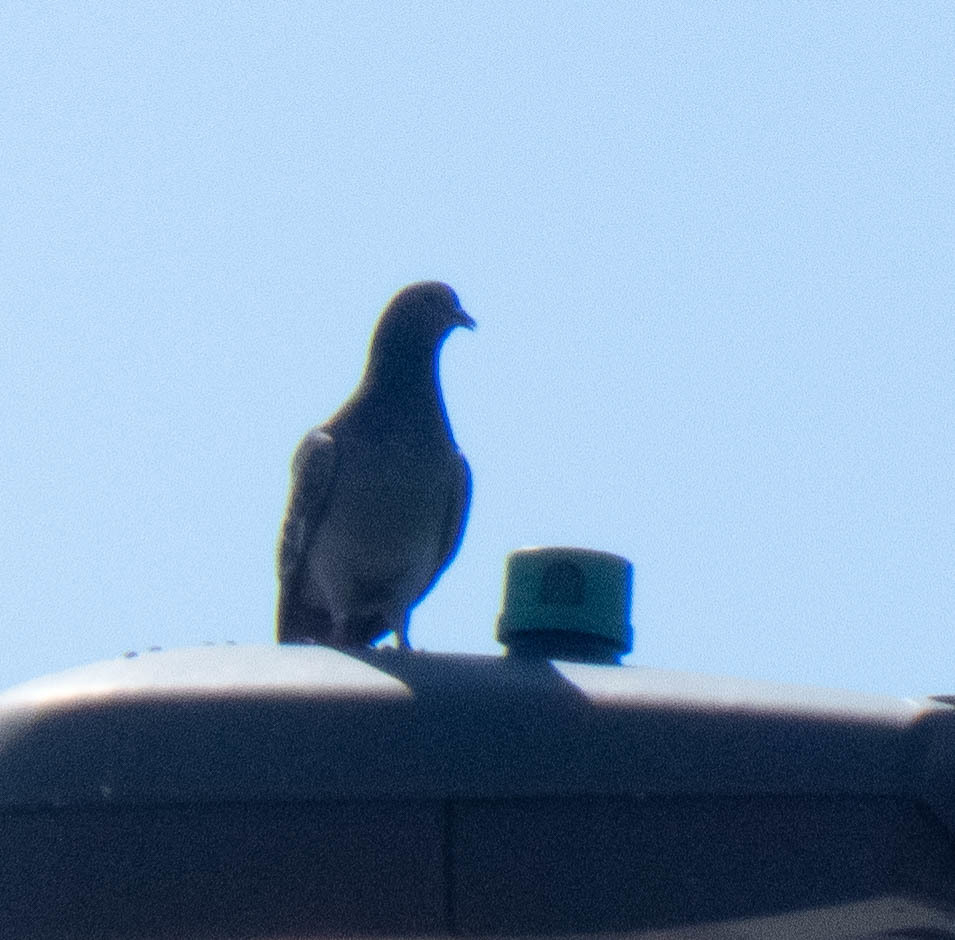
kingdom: Animalia
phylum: Chordata
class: Aves
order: Columbiformes
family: Columbidae
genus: Columba
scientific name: Columba livia
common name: Rock pigeon
